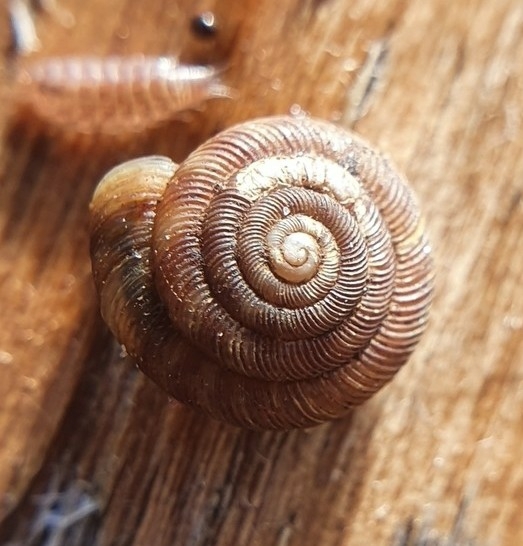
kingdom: Animalia
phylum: Mollusca
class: Gastropoda
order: Stylommatophora
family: Discidae
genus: Discus
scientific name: Discus rotundatus
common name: Rounded snail
